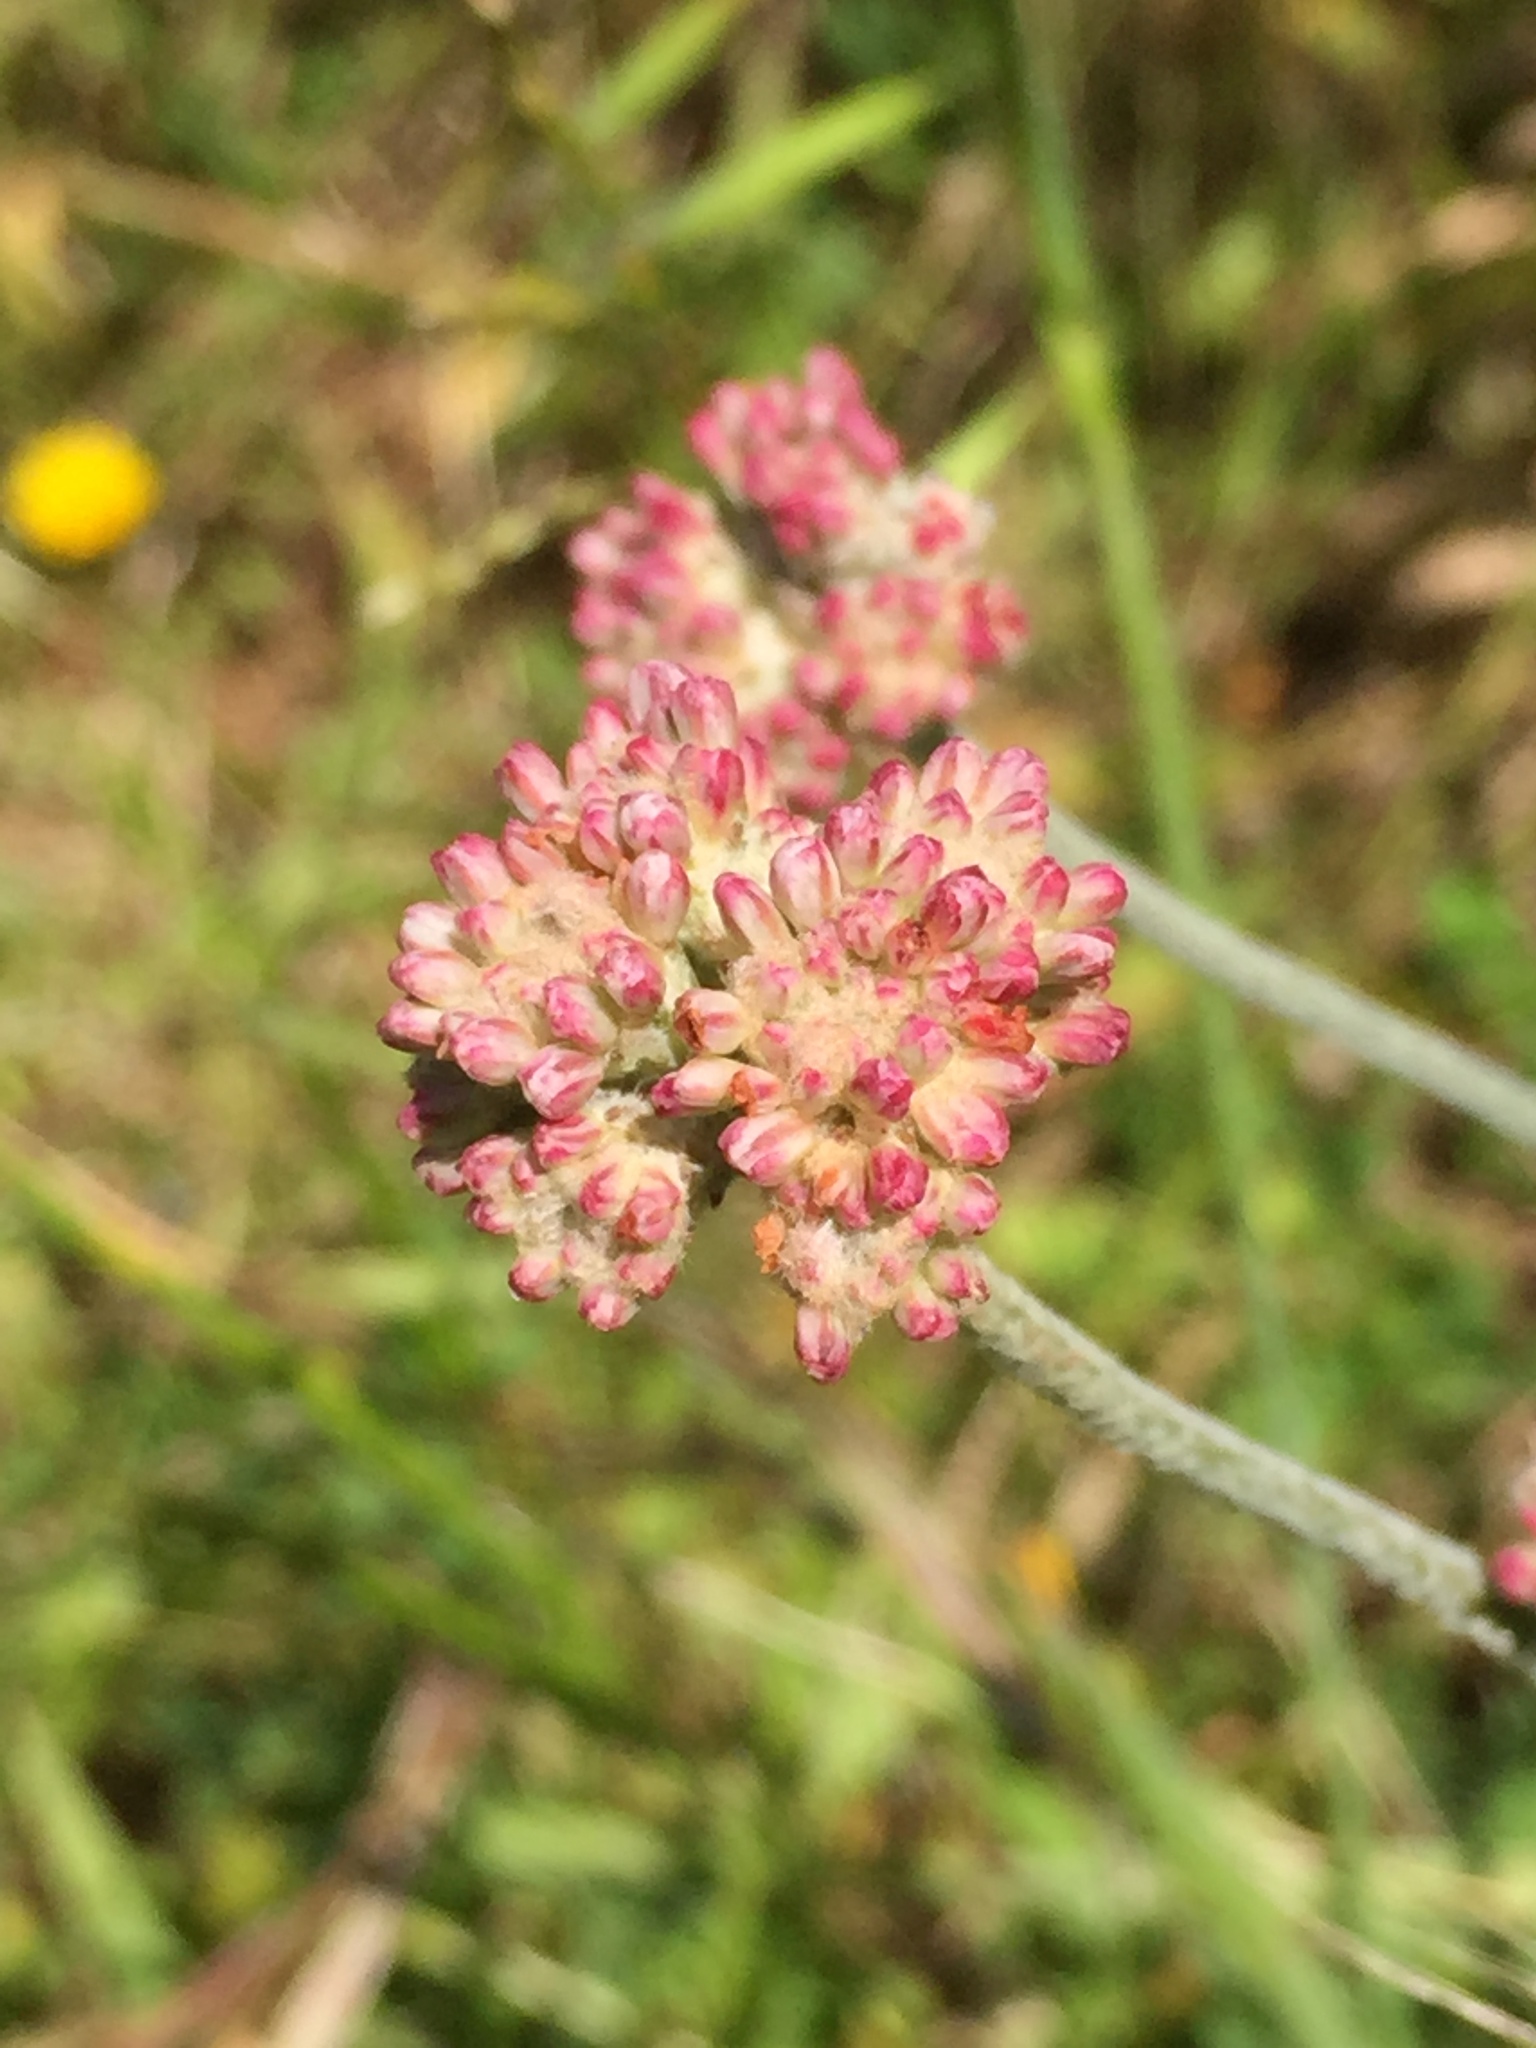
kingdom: Plantae
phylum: Tracheophyta
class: Magnoliopsida
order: Caryophyllales
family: Polygonaceae
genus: Eriogonum
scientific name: Eriogonum latifolium
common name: Seaside wild buckwheat
